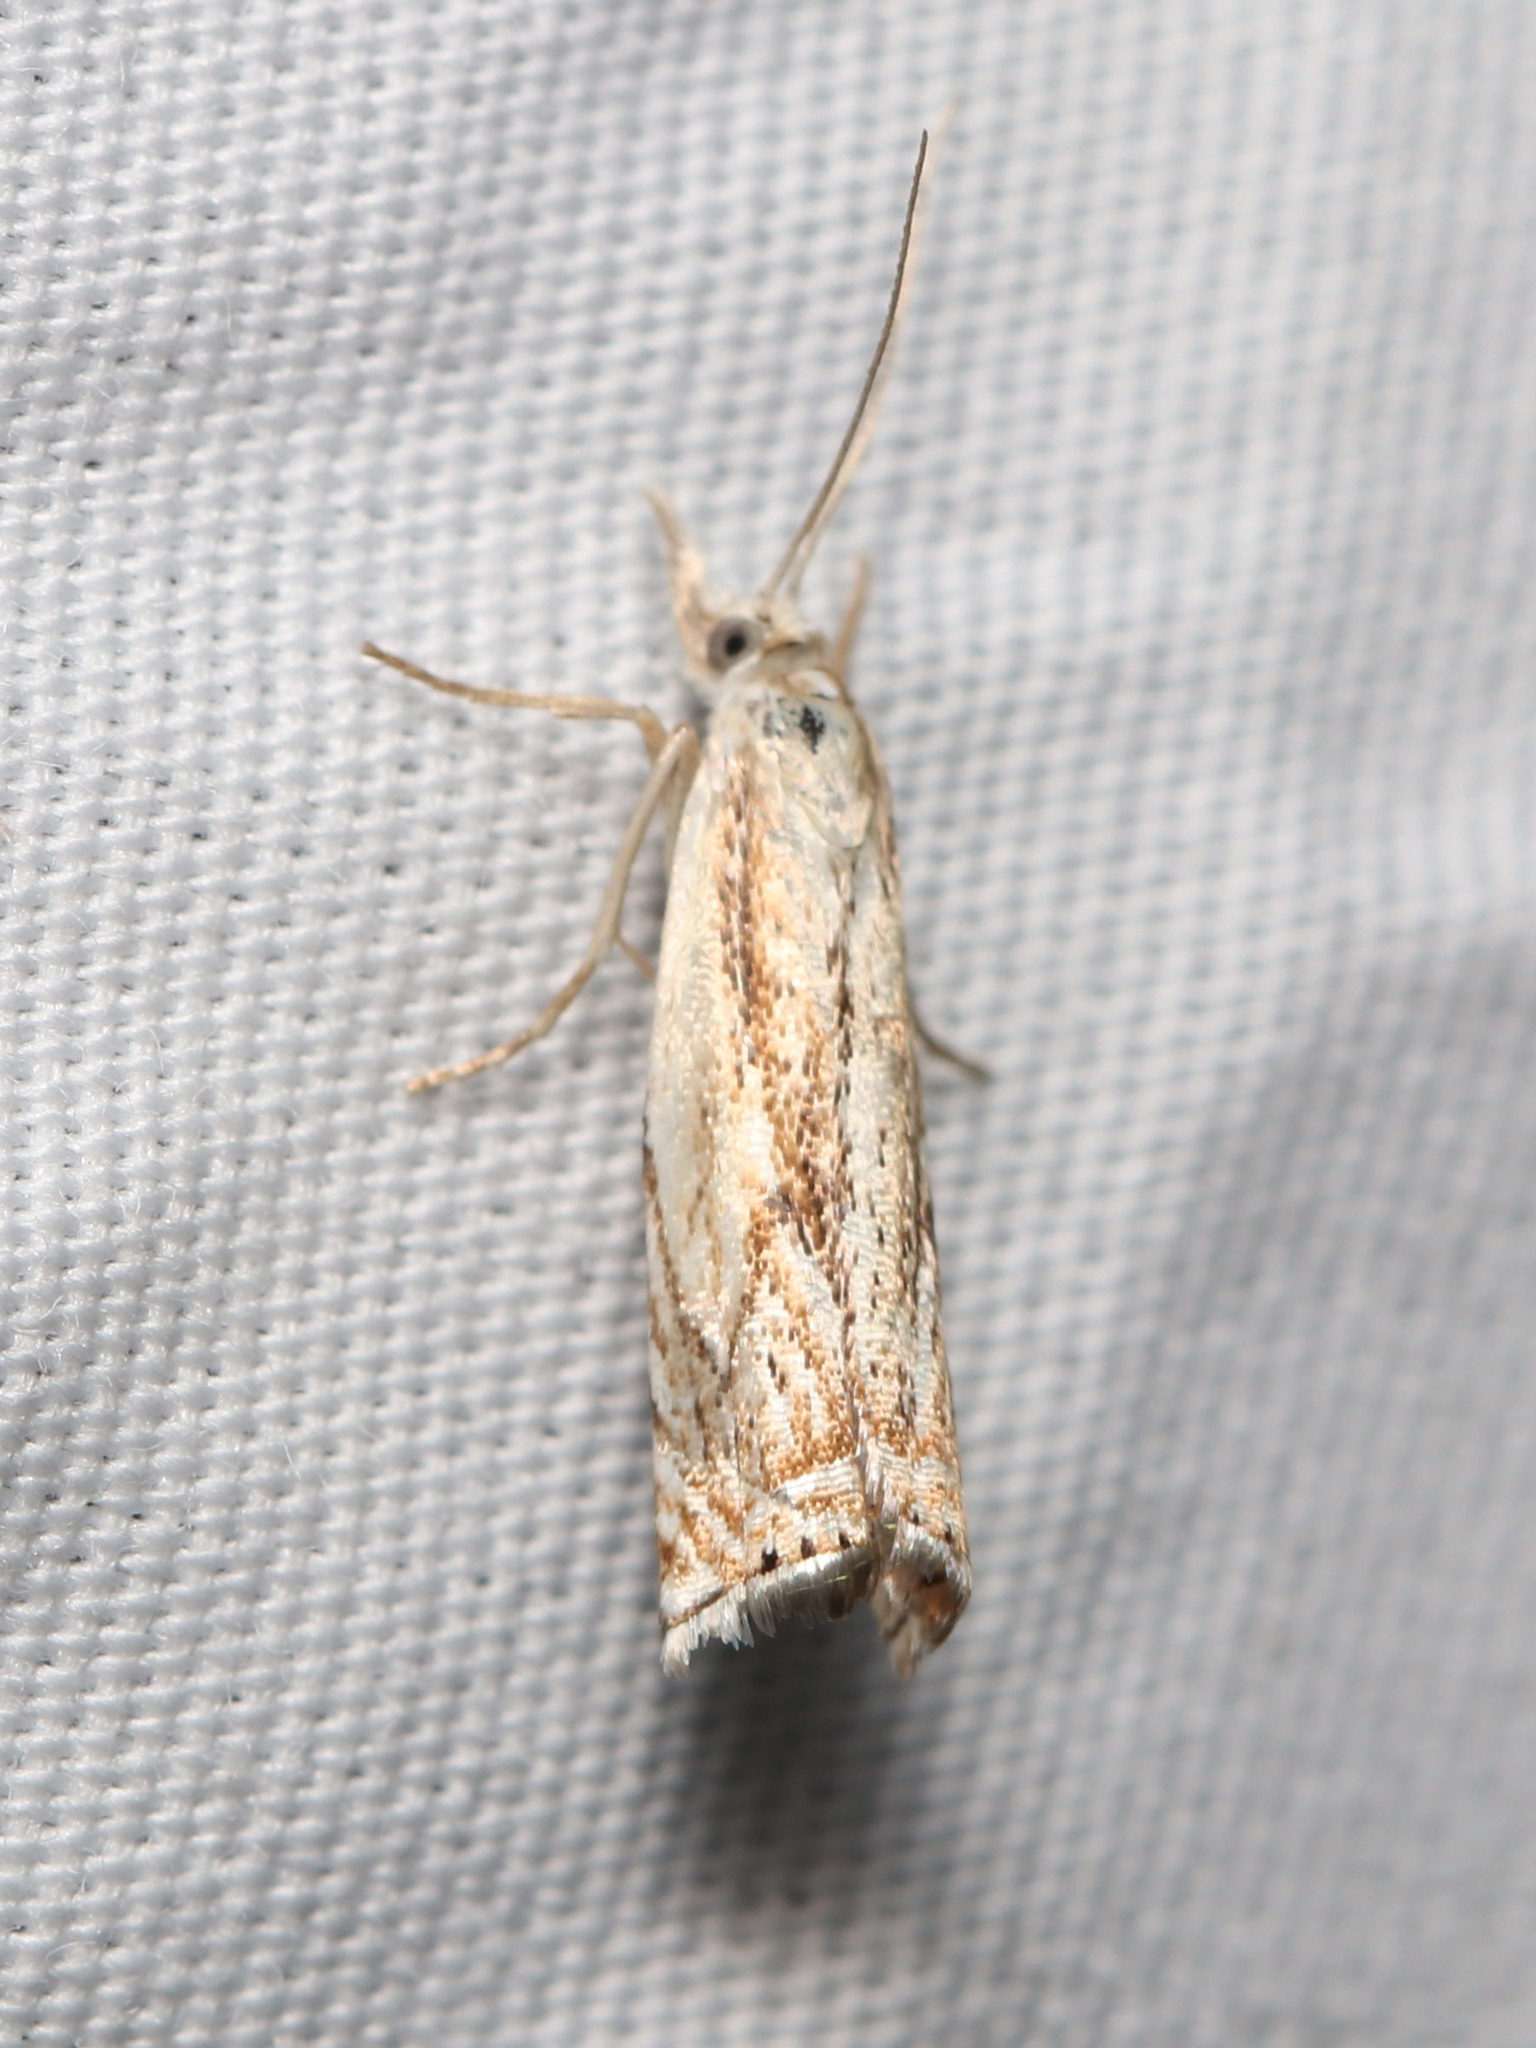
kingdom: Animalia
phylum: Arthropoda
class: Insecta
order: Lepidoptera
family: Crambidae
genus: Crambus
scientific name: Crambus albellus
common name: Small white grass-veneer
